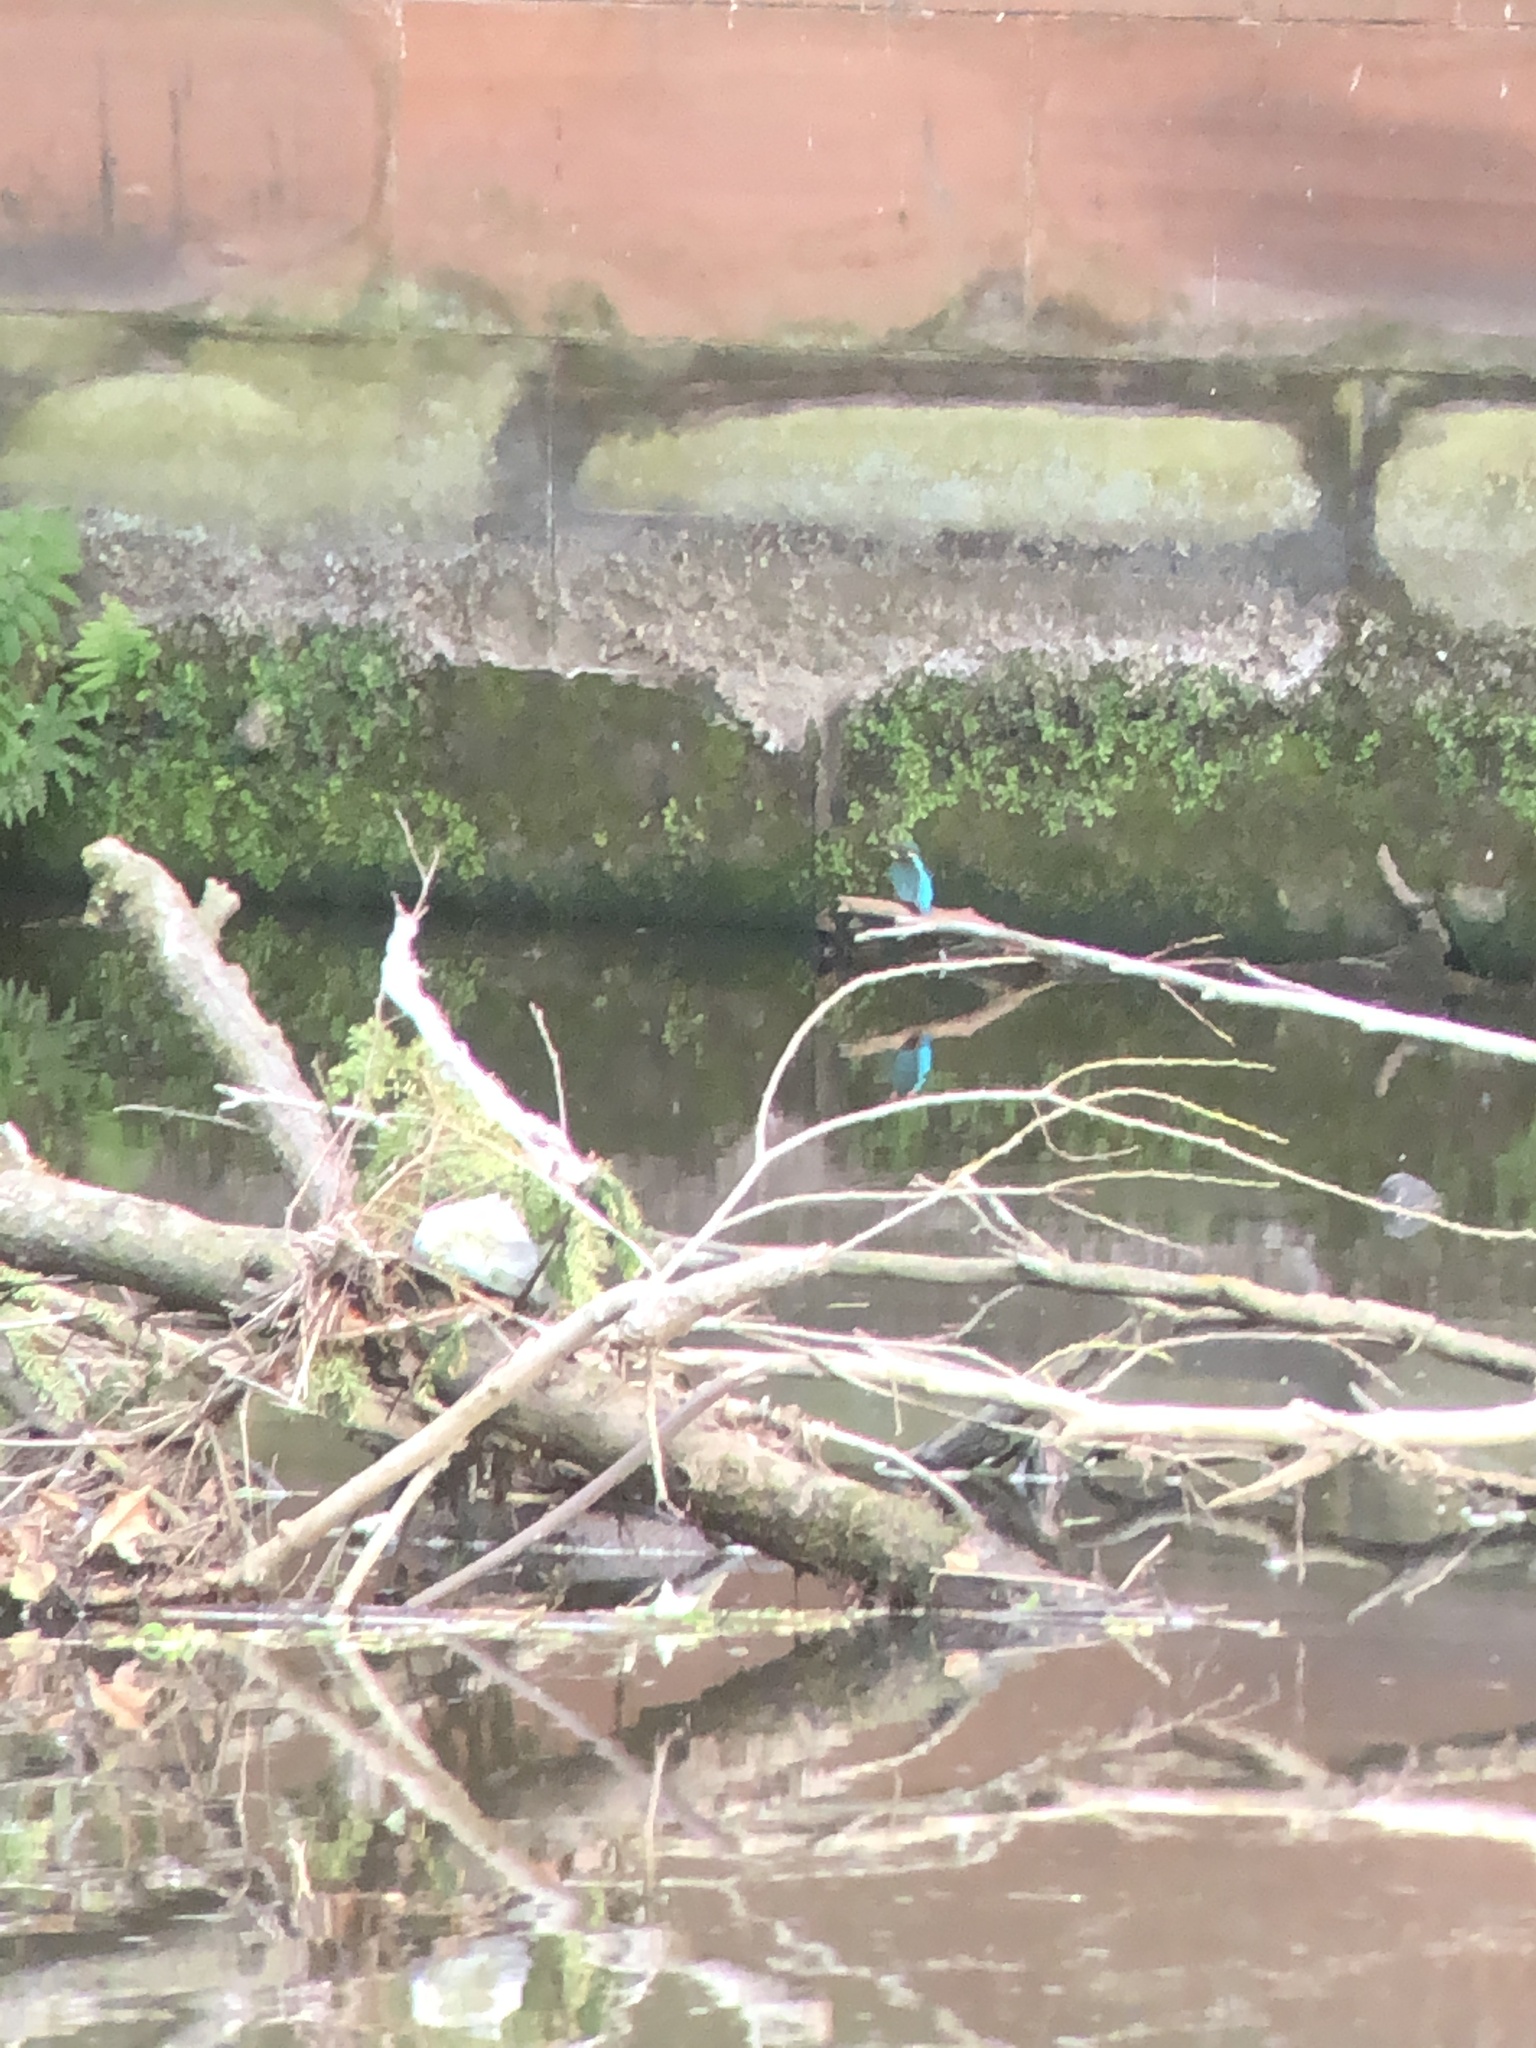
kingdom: Animalia
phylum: Chordata
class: Aves
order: Coraciiformes
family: Alcedinidae
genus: Alcedo
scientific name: Alcedo atthis
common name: Common kingfisher
